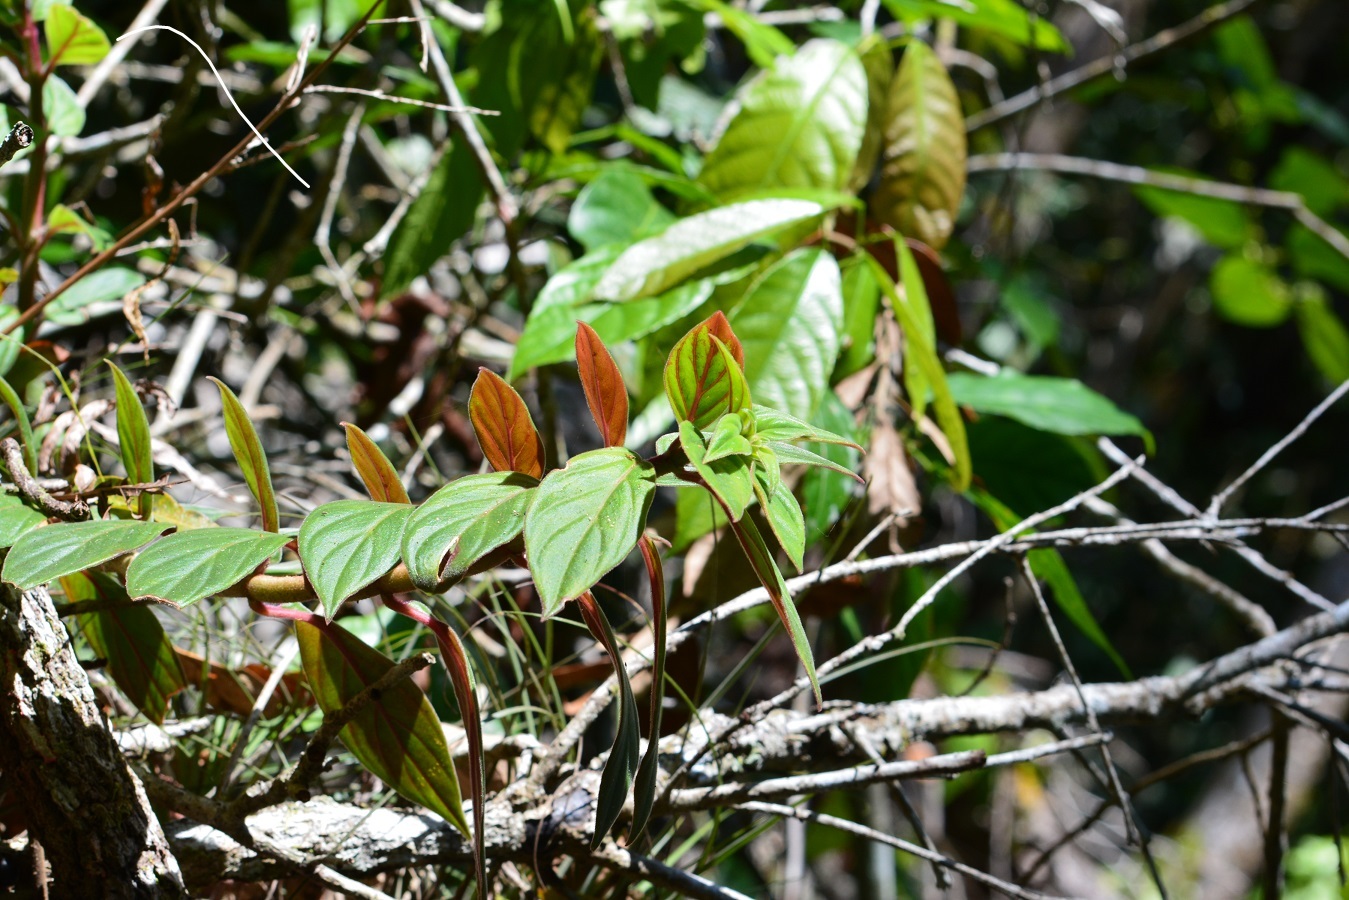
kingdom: Plantae
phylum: Tracheophyta
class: Magnoliopsida
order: Lamiales
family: Gesneriaceae
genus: Columnea
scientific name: Columnea schiedeana
